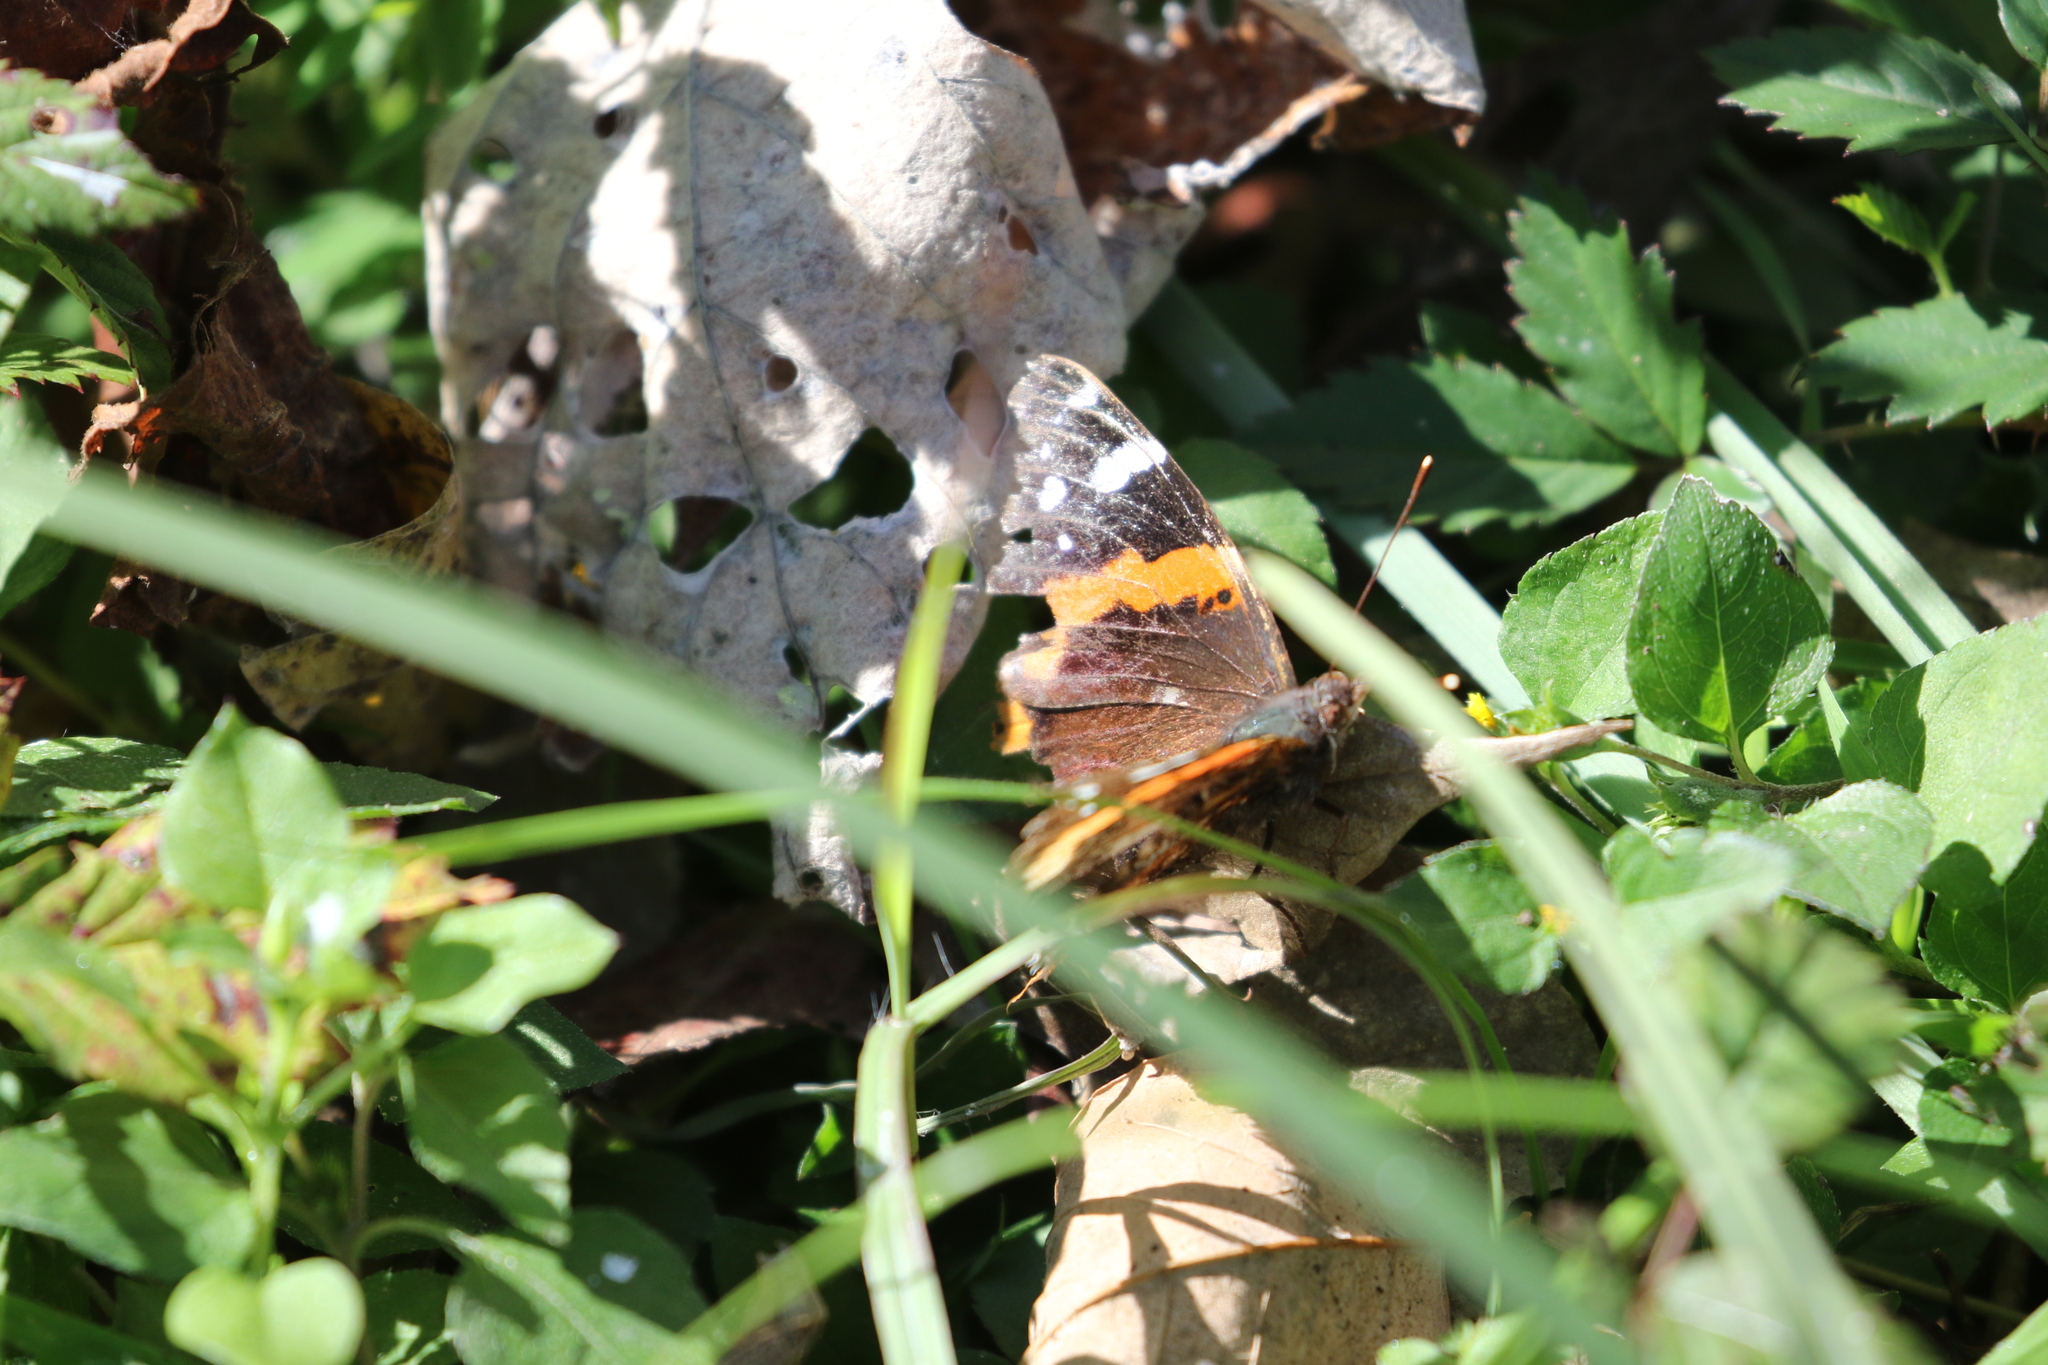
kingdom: Animalia
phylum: Arthropoda
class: Insecta
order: Lepidoptera
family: Nymphalidae
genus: Vanessa
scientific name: Vanessa atalanta
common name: Red admiral
